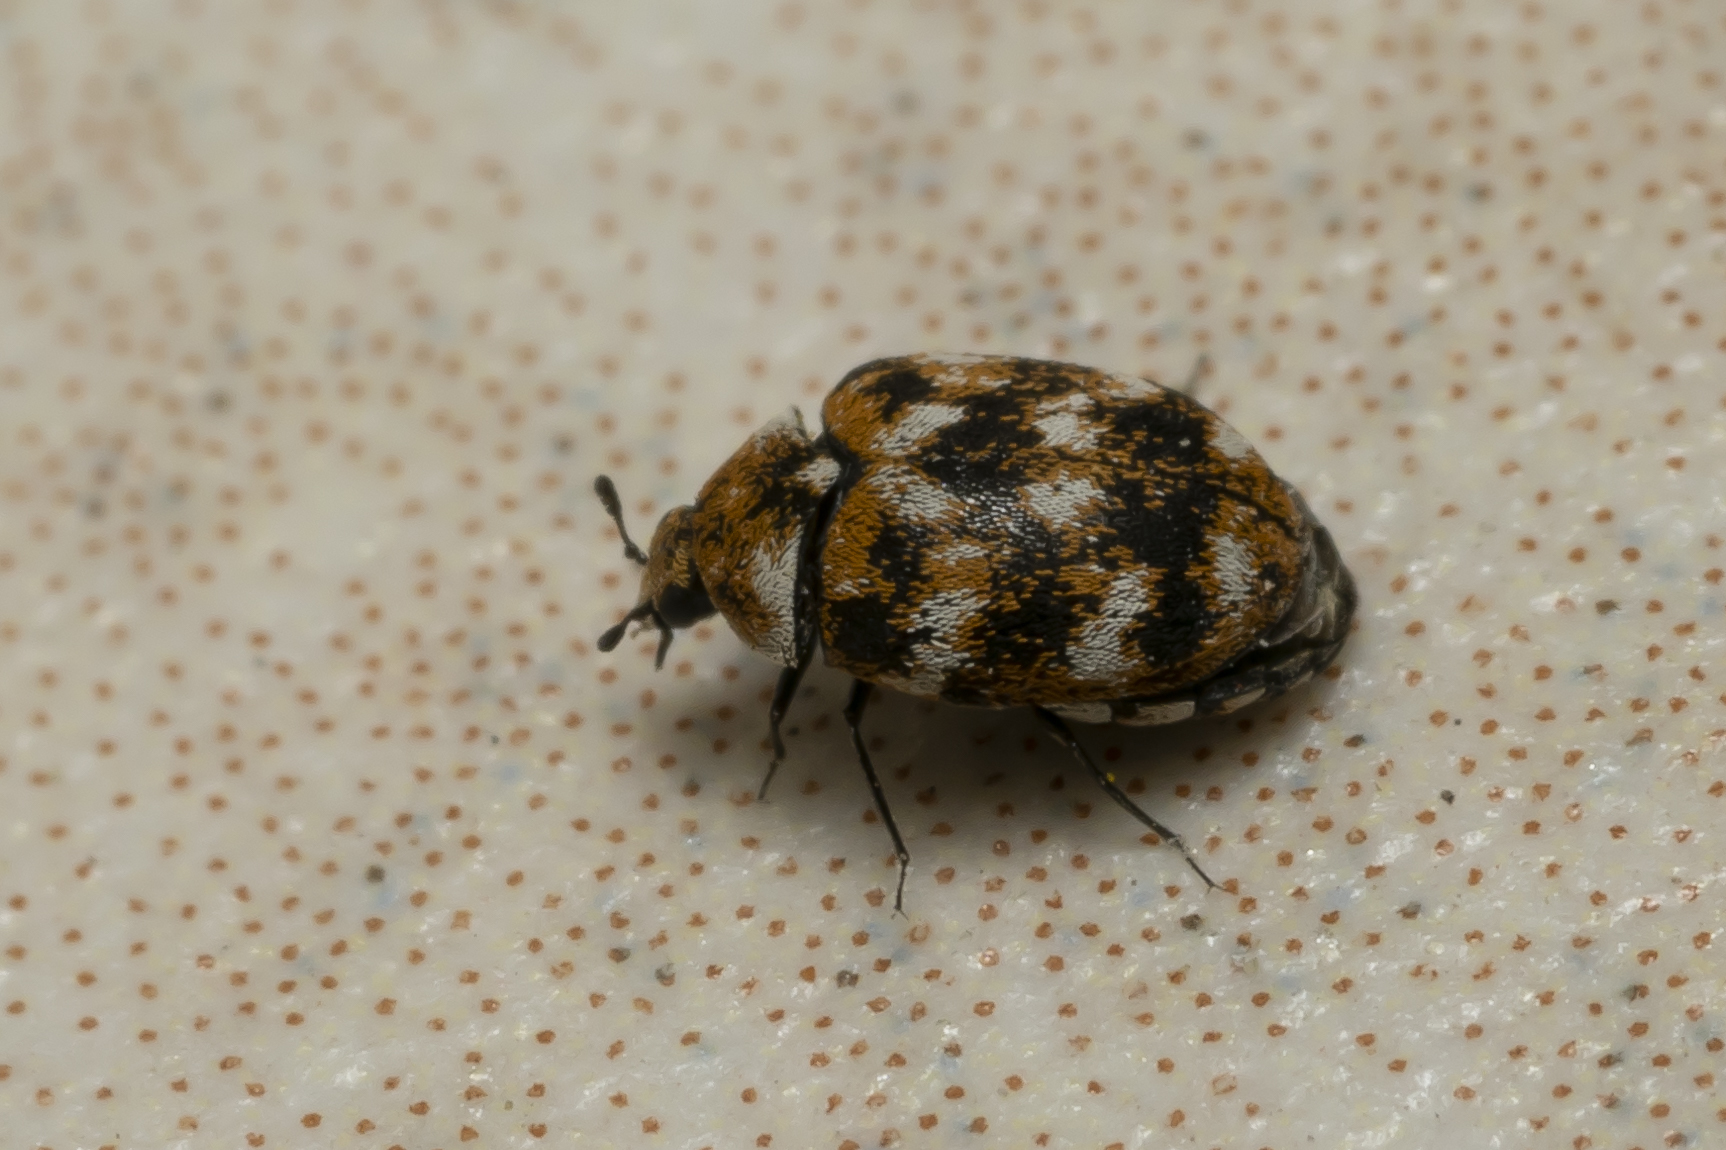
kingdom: Animalia
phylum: Arthropoda
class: Insecta
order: Coleoptera
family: Dermestidae
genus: Anthrenus
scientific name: Anthrenus verbasci
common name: Varied carpet beetle
